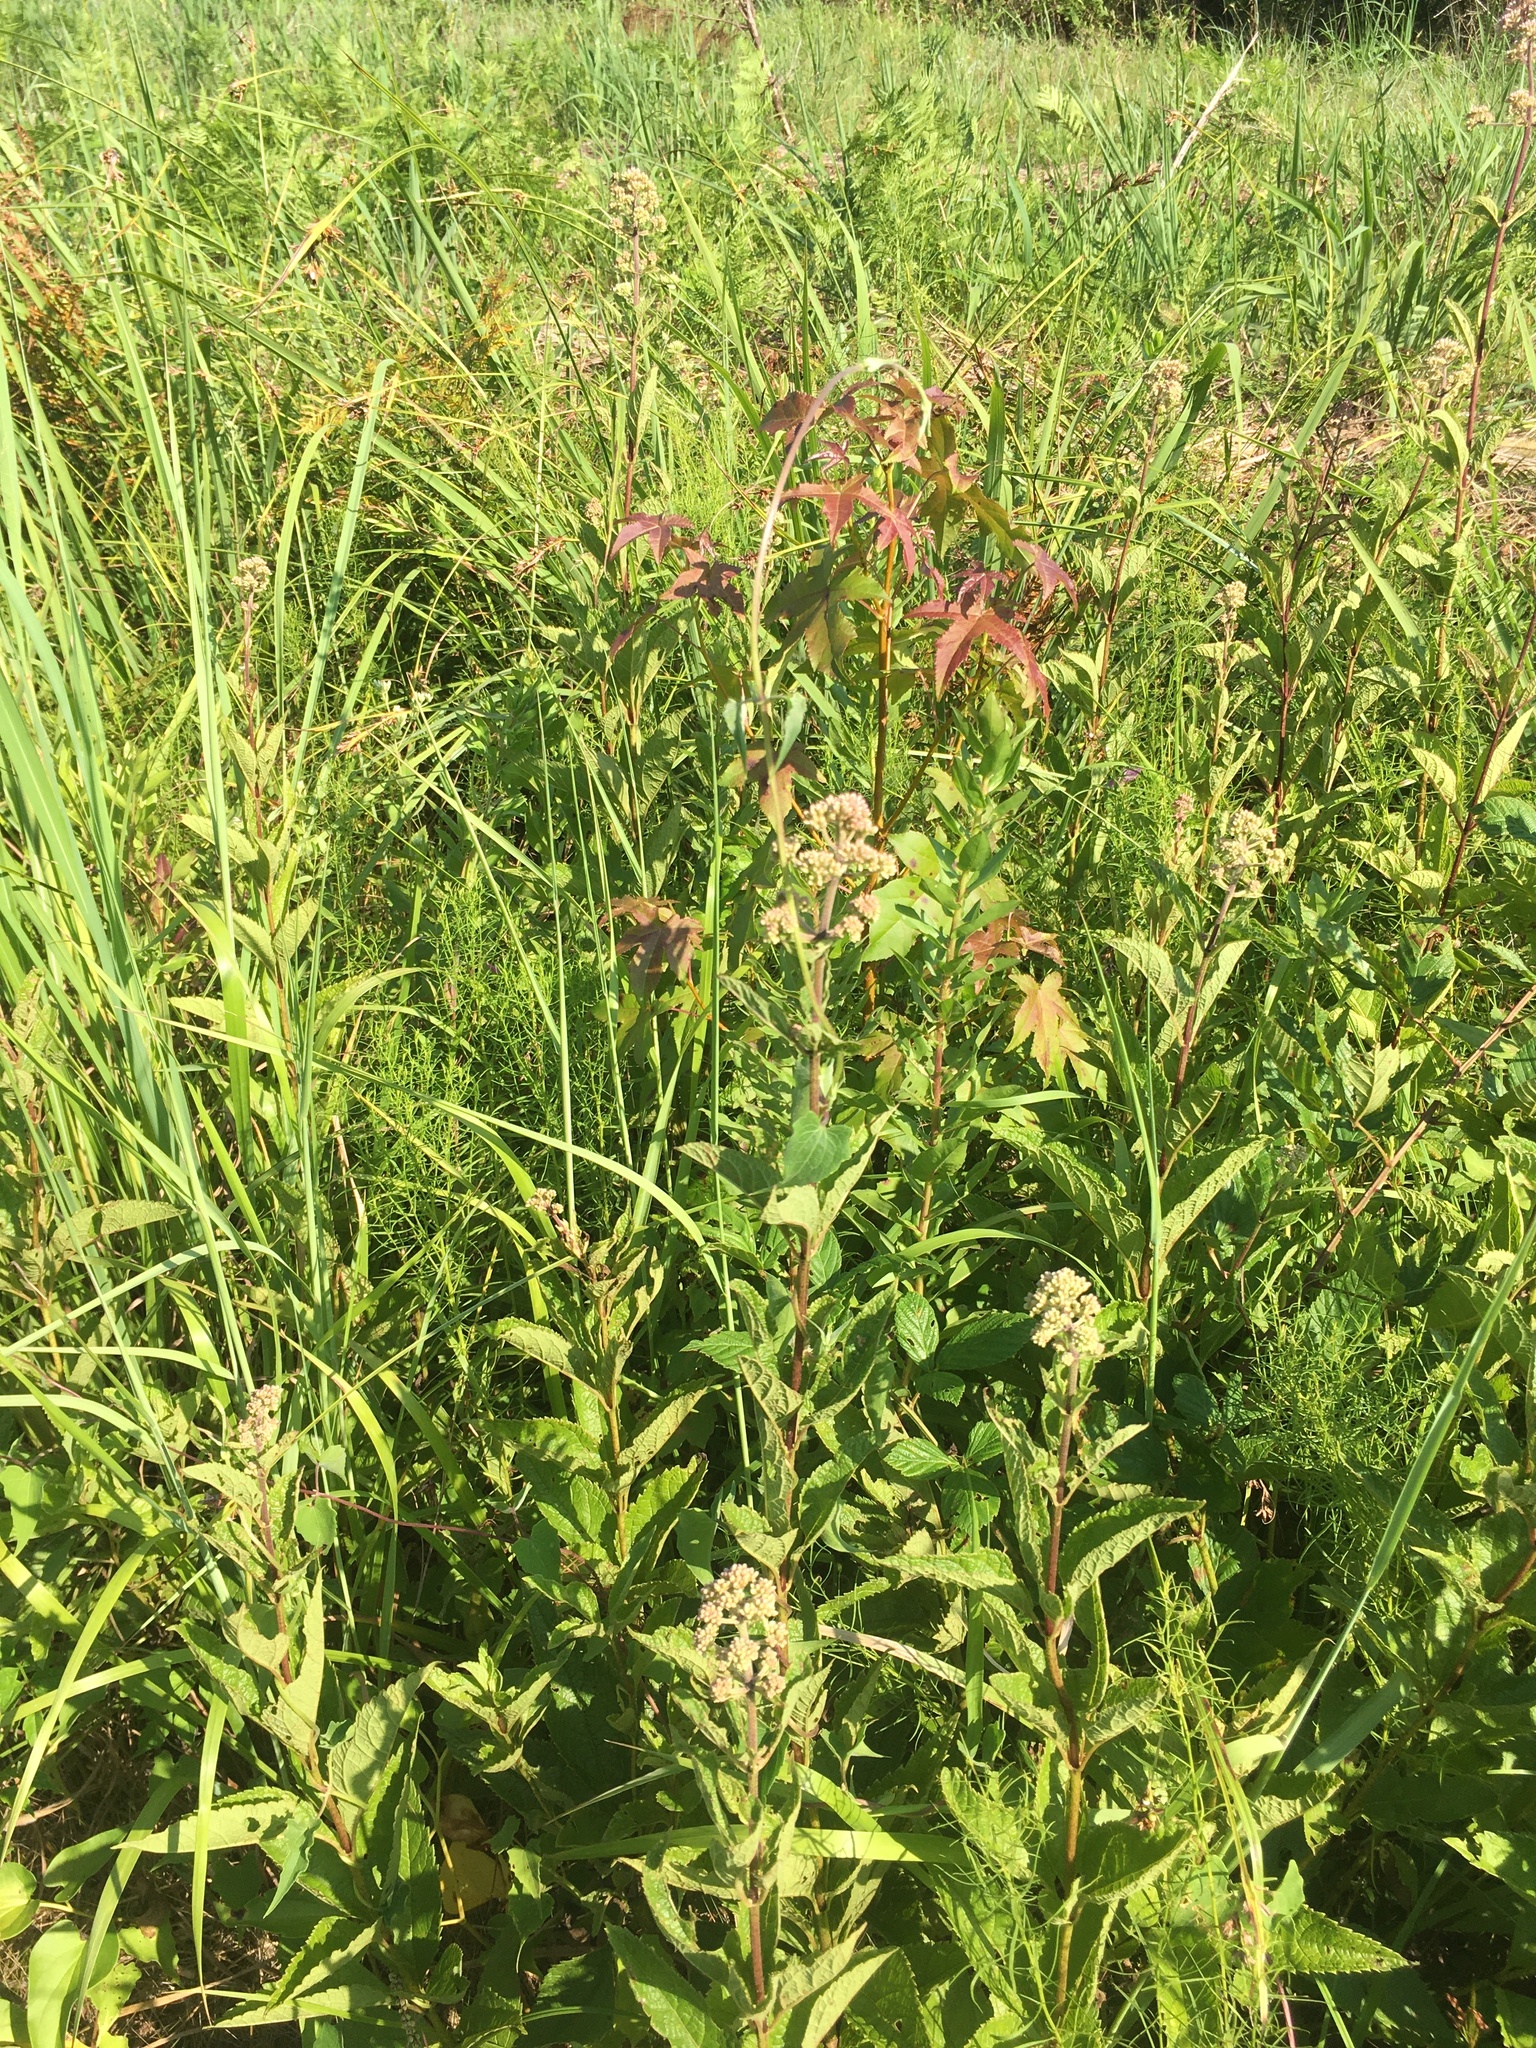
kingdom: Plantae
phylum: Tracheophyta
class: Magnoliopsida
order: Asterales
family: Asteraceae
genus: Eutrochium
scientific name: Eutrochium dubium
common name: Coastal plain joe pye weed
